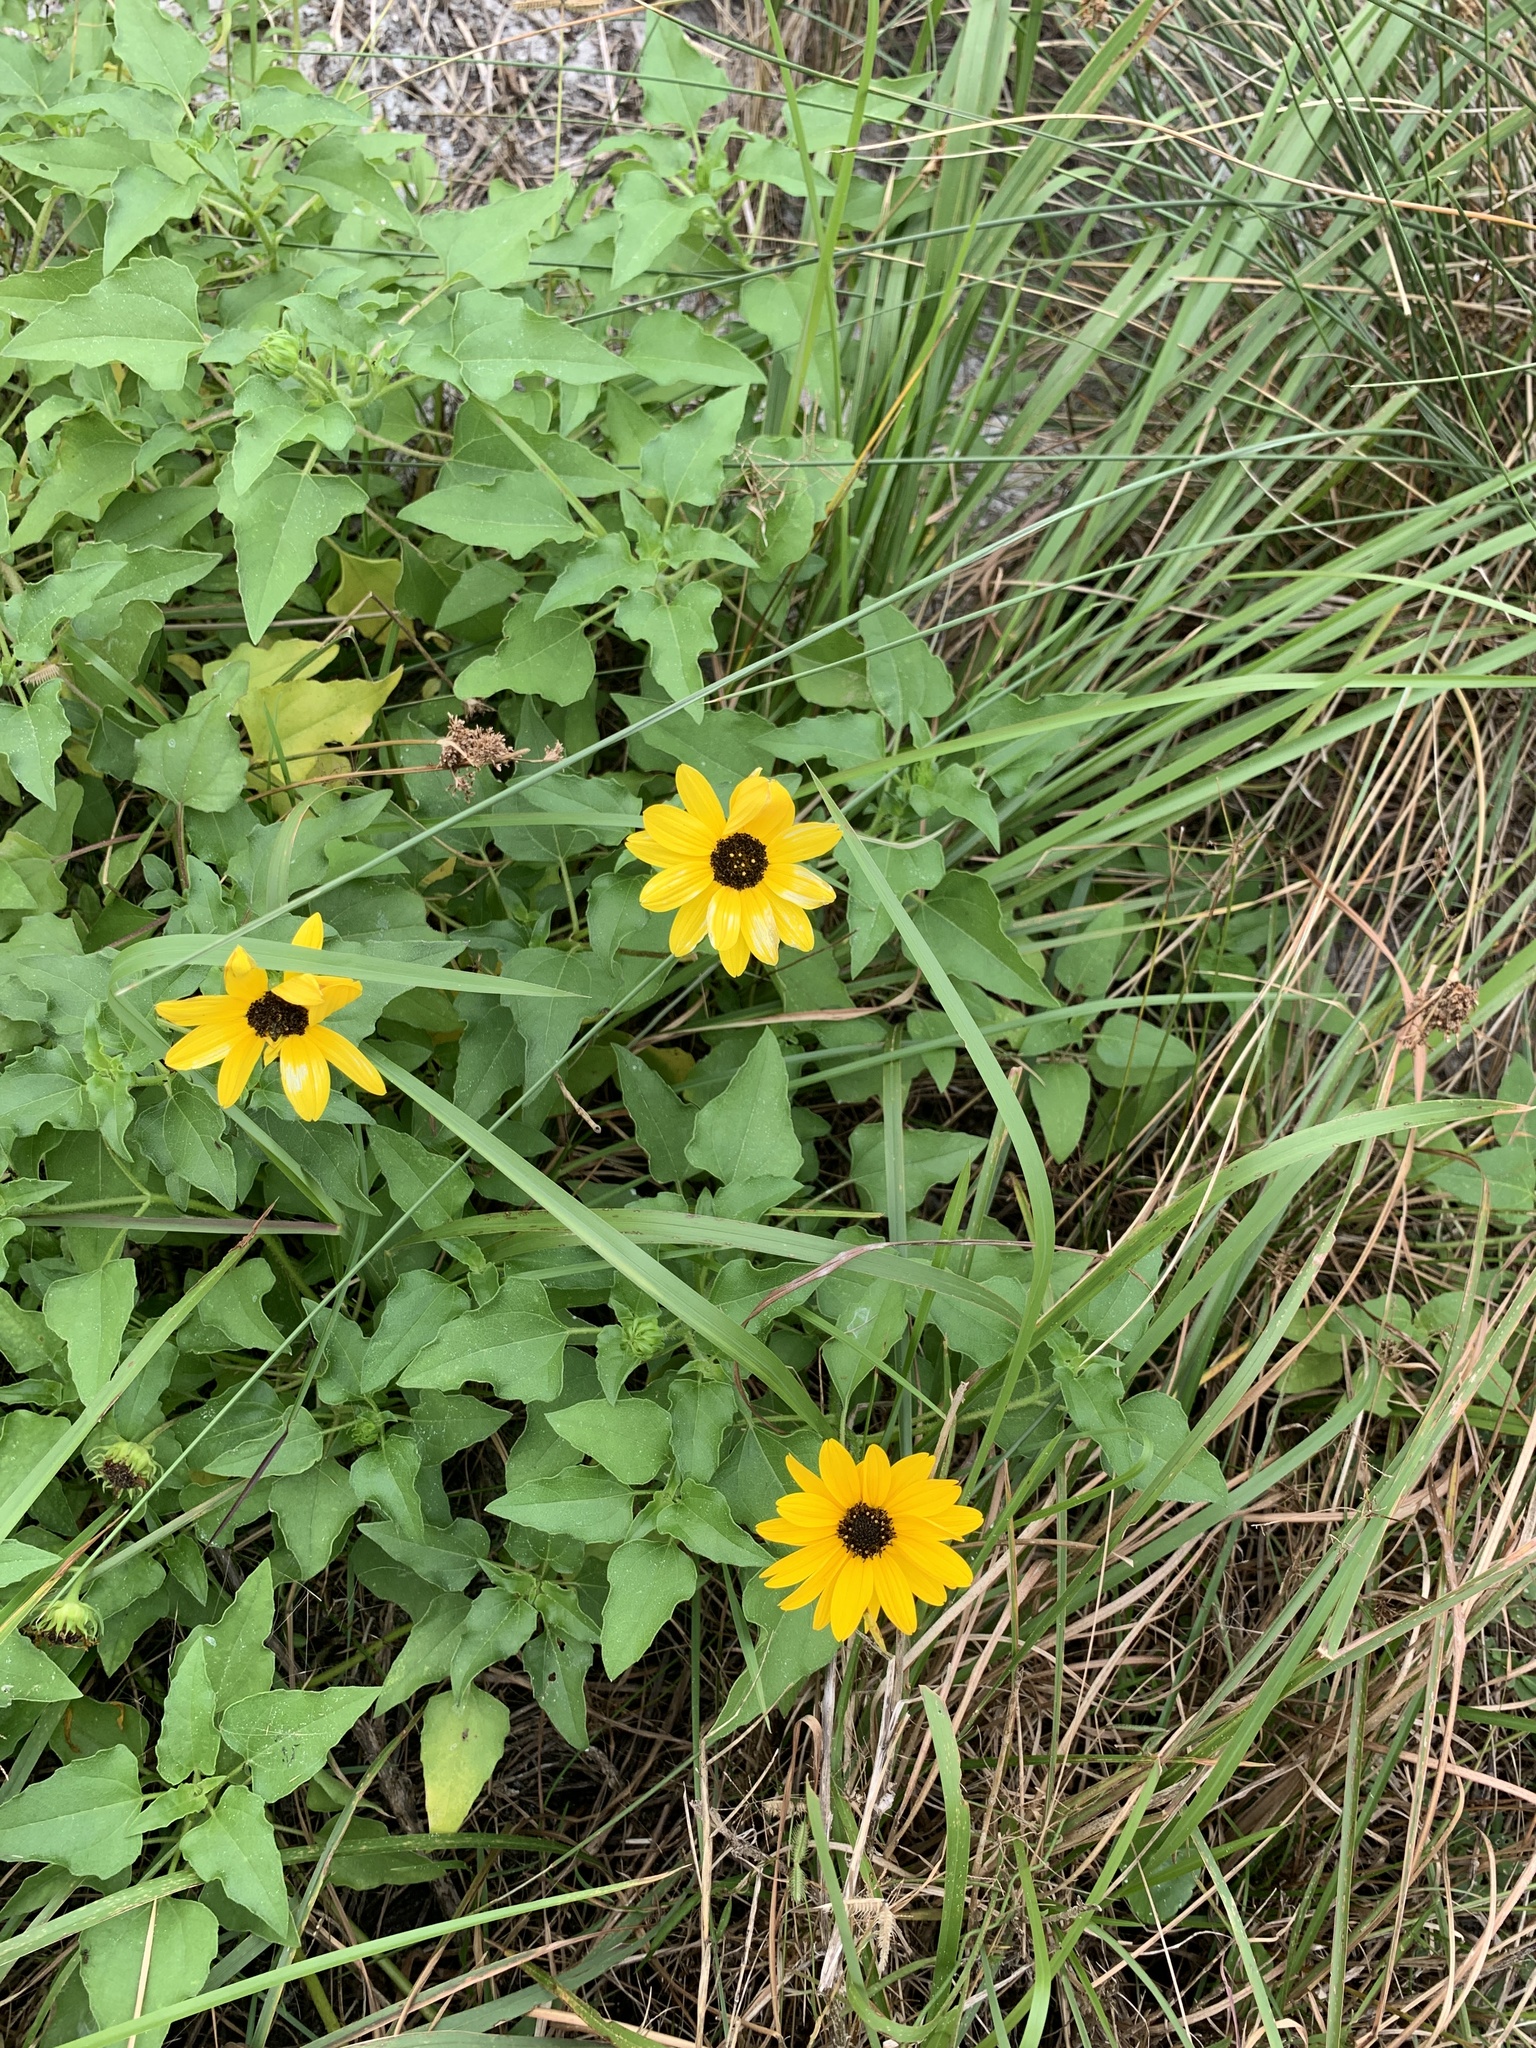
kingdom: Plantae
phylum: Tracheophyta
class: Magnoliopsida
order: Asterales
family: Asteraceae
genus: Helianthus
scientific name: Helianthus debilis
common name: Weak sunflower
